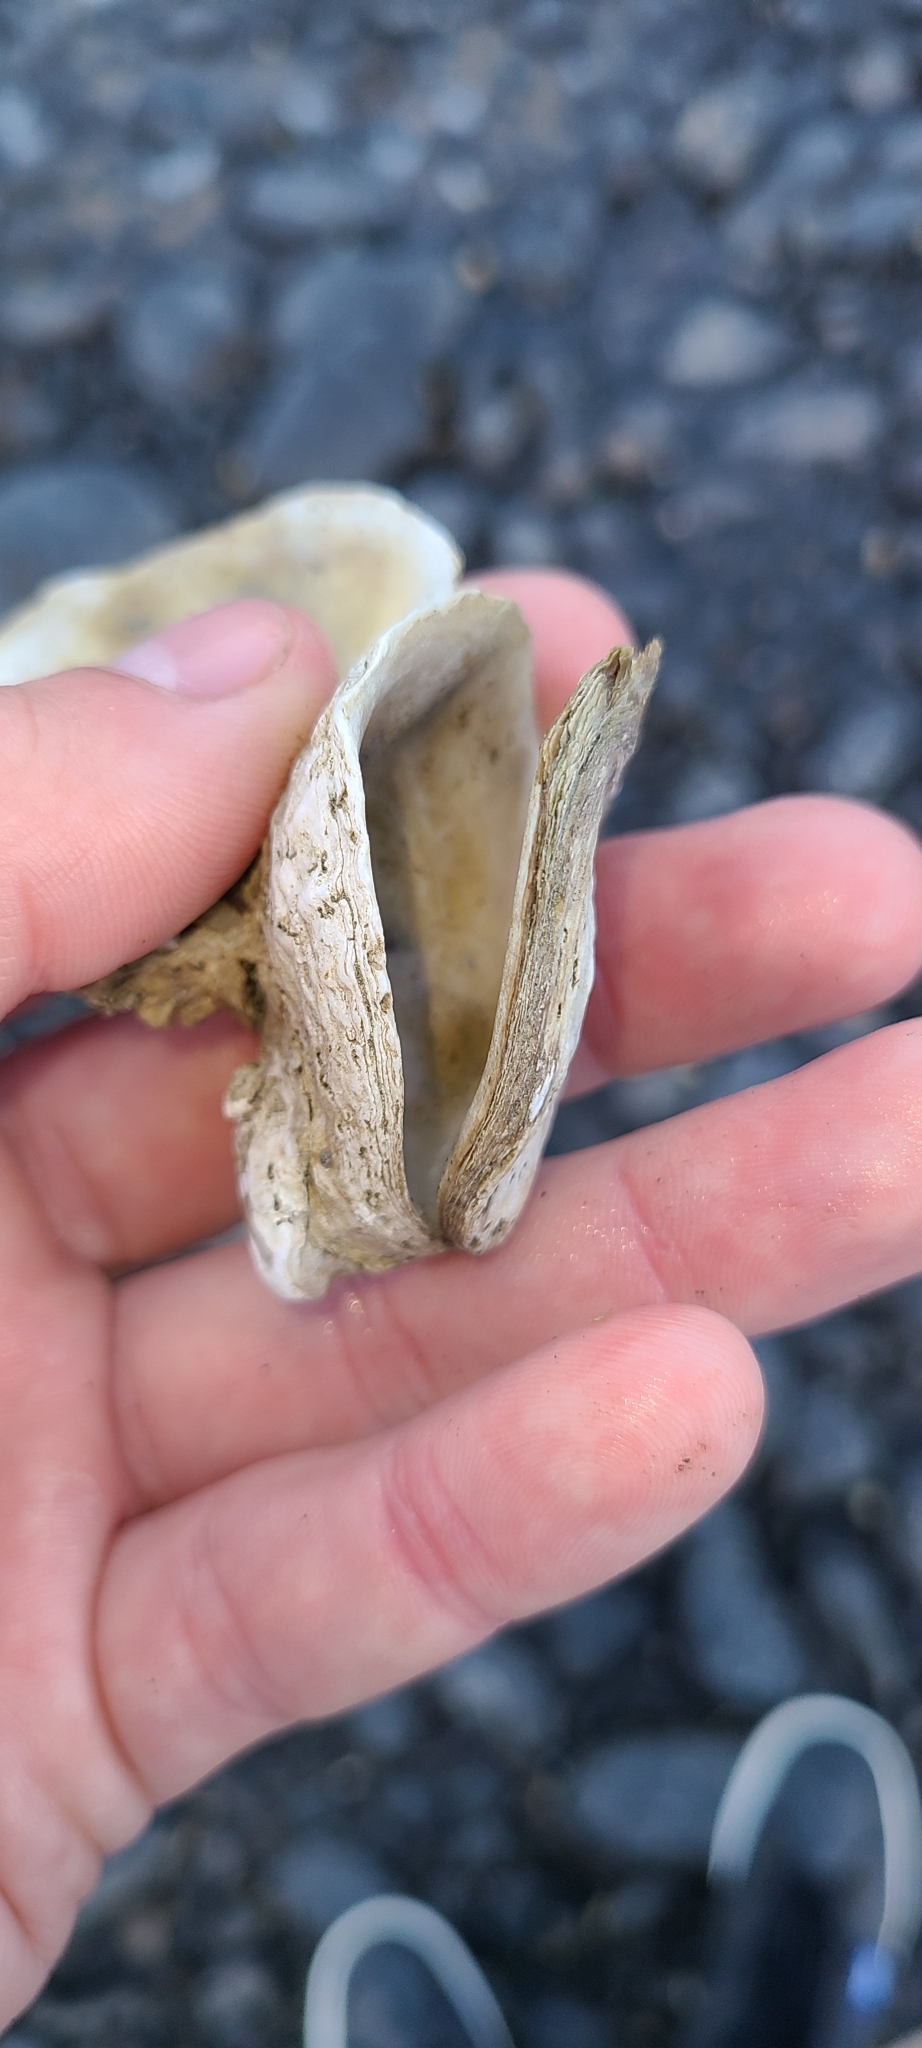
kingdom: Animalia
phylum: Mollusca
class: Bivalvia
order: Ostreida
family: Ostreidae
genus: Ostrea
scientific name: Ostrea chilensis
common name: Chilean oyster
